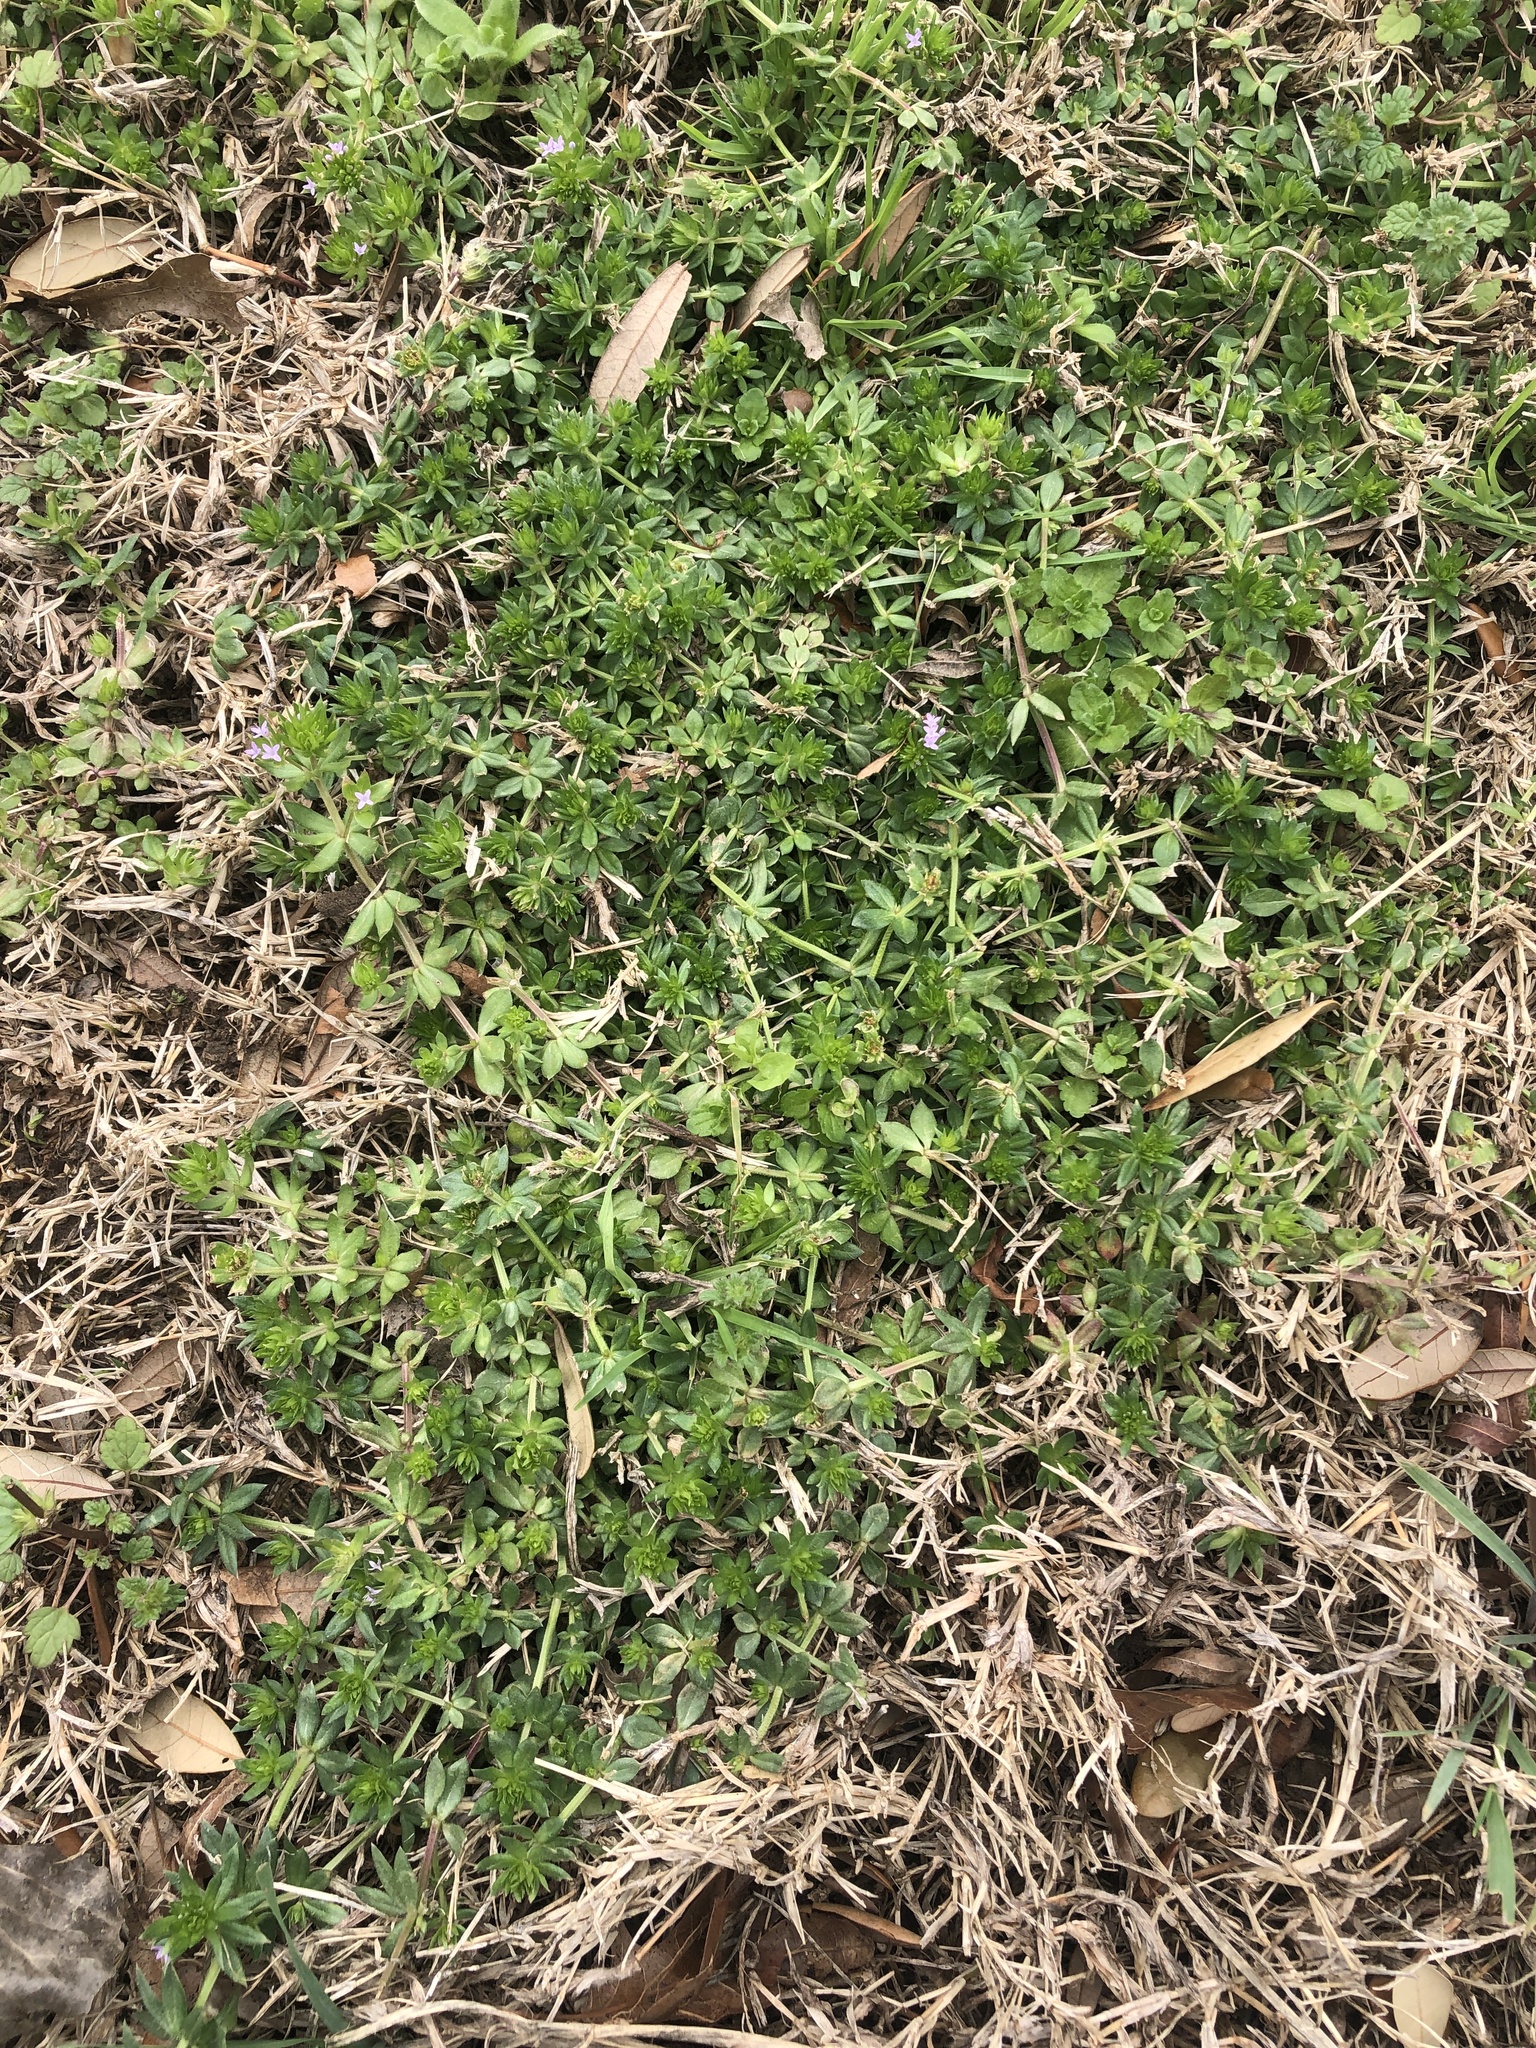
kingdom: Plantae
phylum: Tracheophyta
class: Magnoliopsida
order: Gentianales
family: Rubiaceae
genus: Sherardia
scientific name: Sherardia arvensis
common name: Field madder
